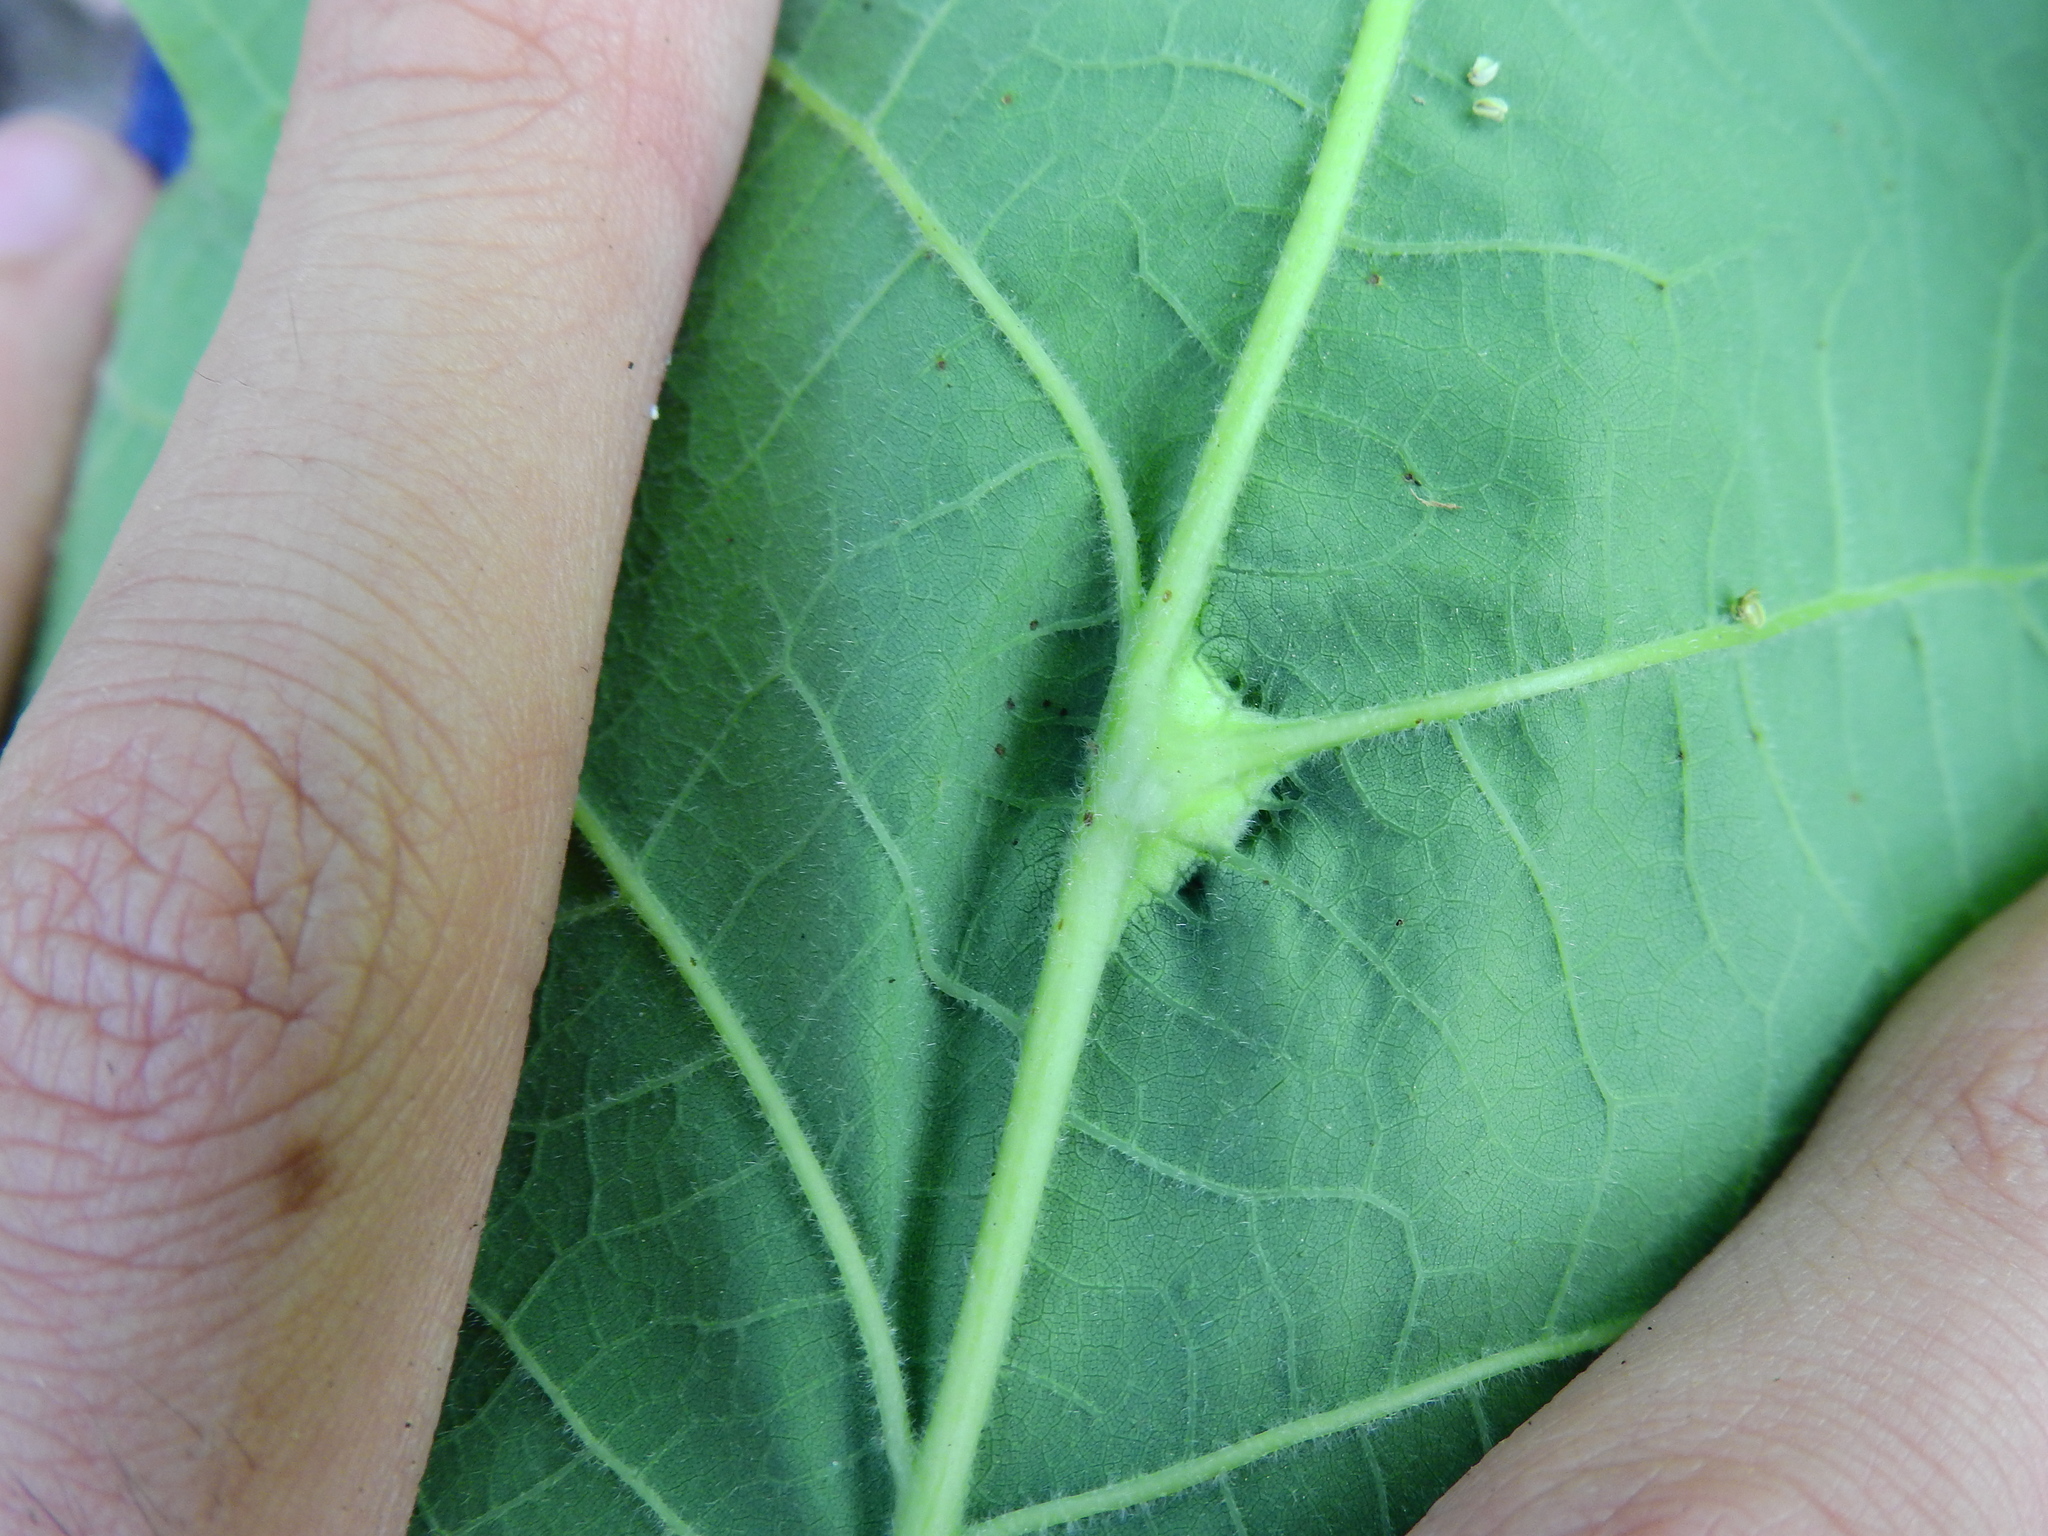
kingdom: Animalia
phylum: Arthropoda
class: Insecta
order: Hymenoptera
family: Cynipidae
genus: Bassettia
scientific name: Bassettia flavipes
